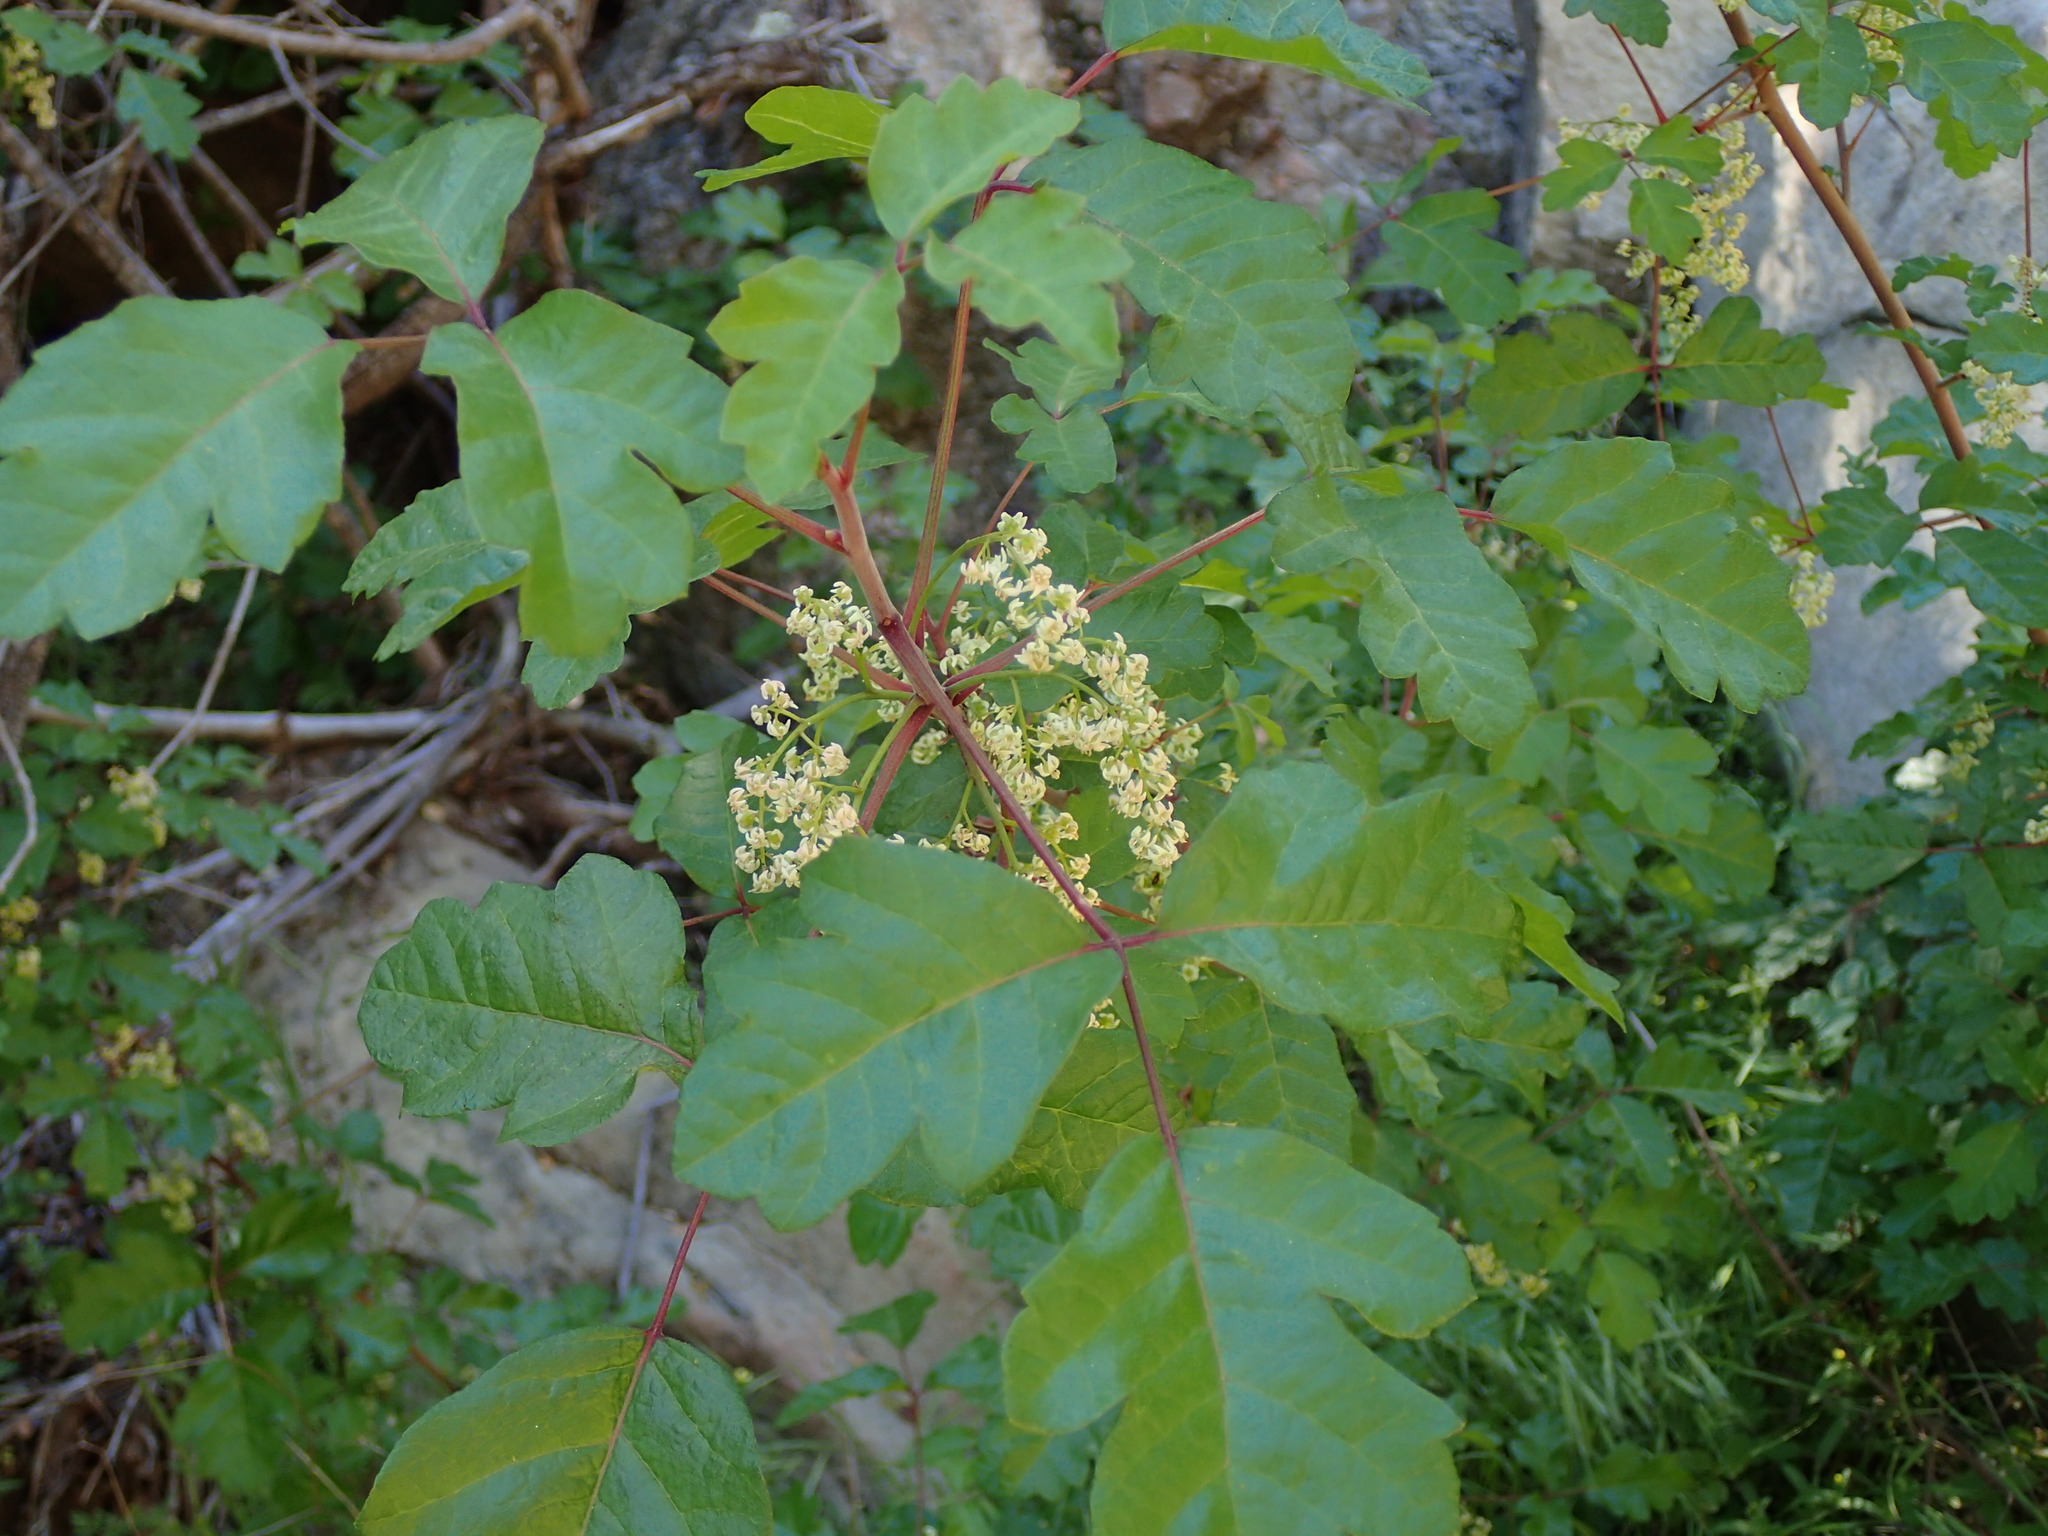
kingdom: Plantae
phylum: Tracheophyta
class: Magnoliopsida
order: Sapindales
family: Anacardiaceae
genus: Toxicodendron
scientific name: Toxicodendron diversilobum
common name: Pacific poison-oak
